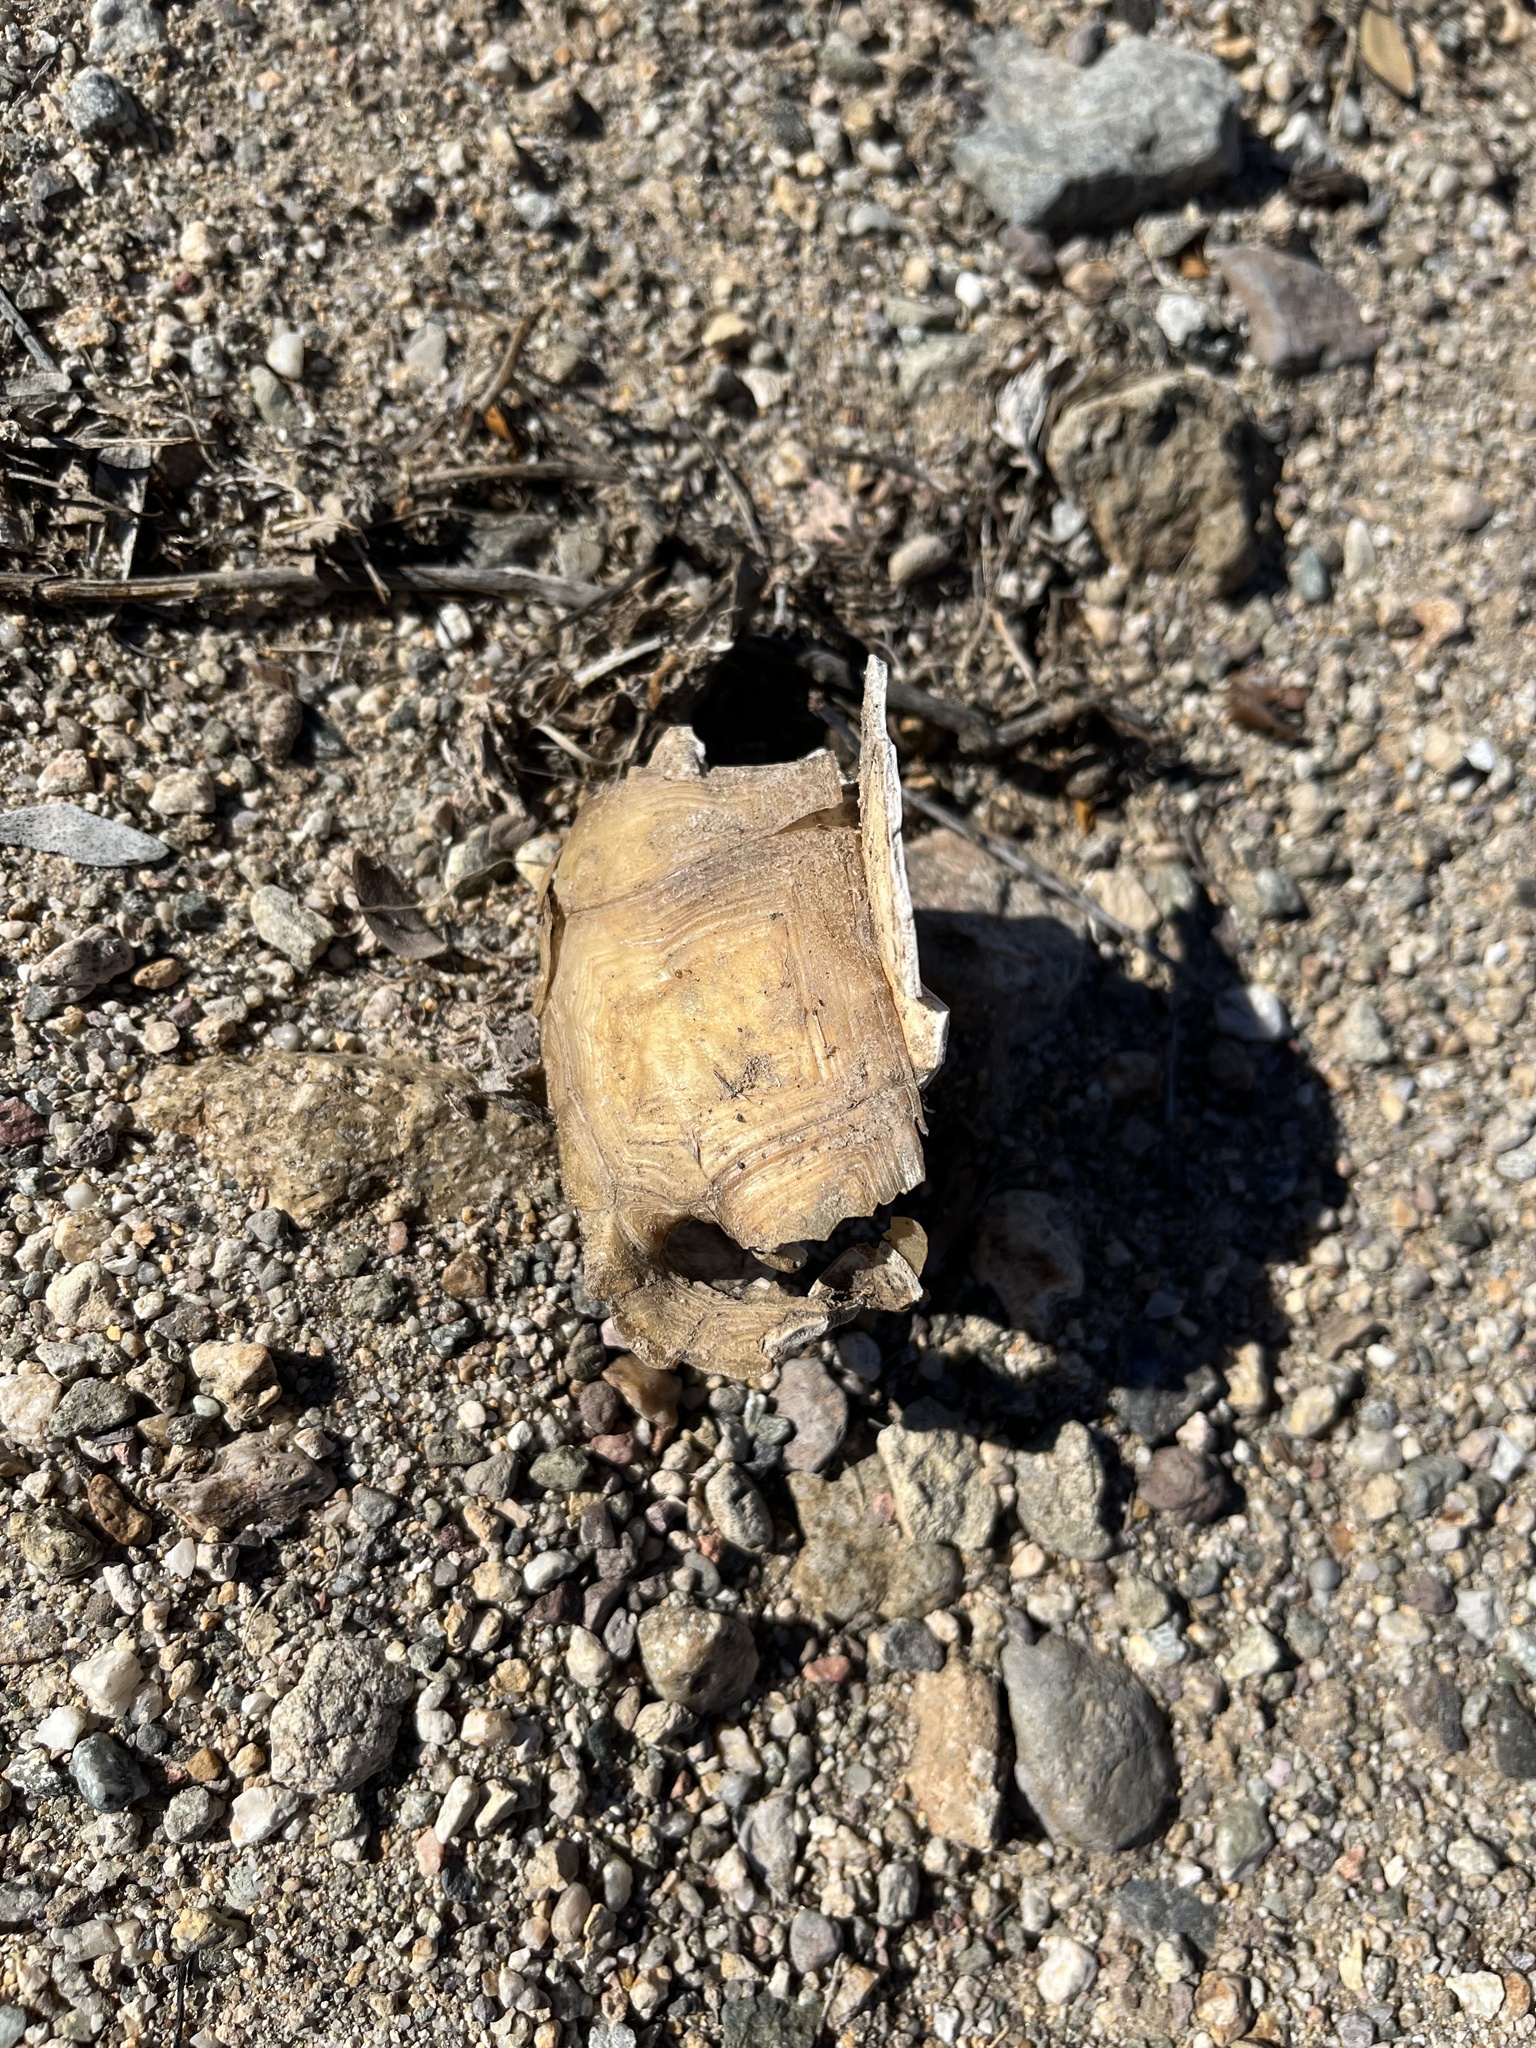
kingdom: Animalia
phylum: Chordata
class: Testudines
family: Testudinidae
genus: Gopherus
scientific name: Gopherus agassizii
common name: Mojave desert tortoise
